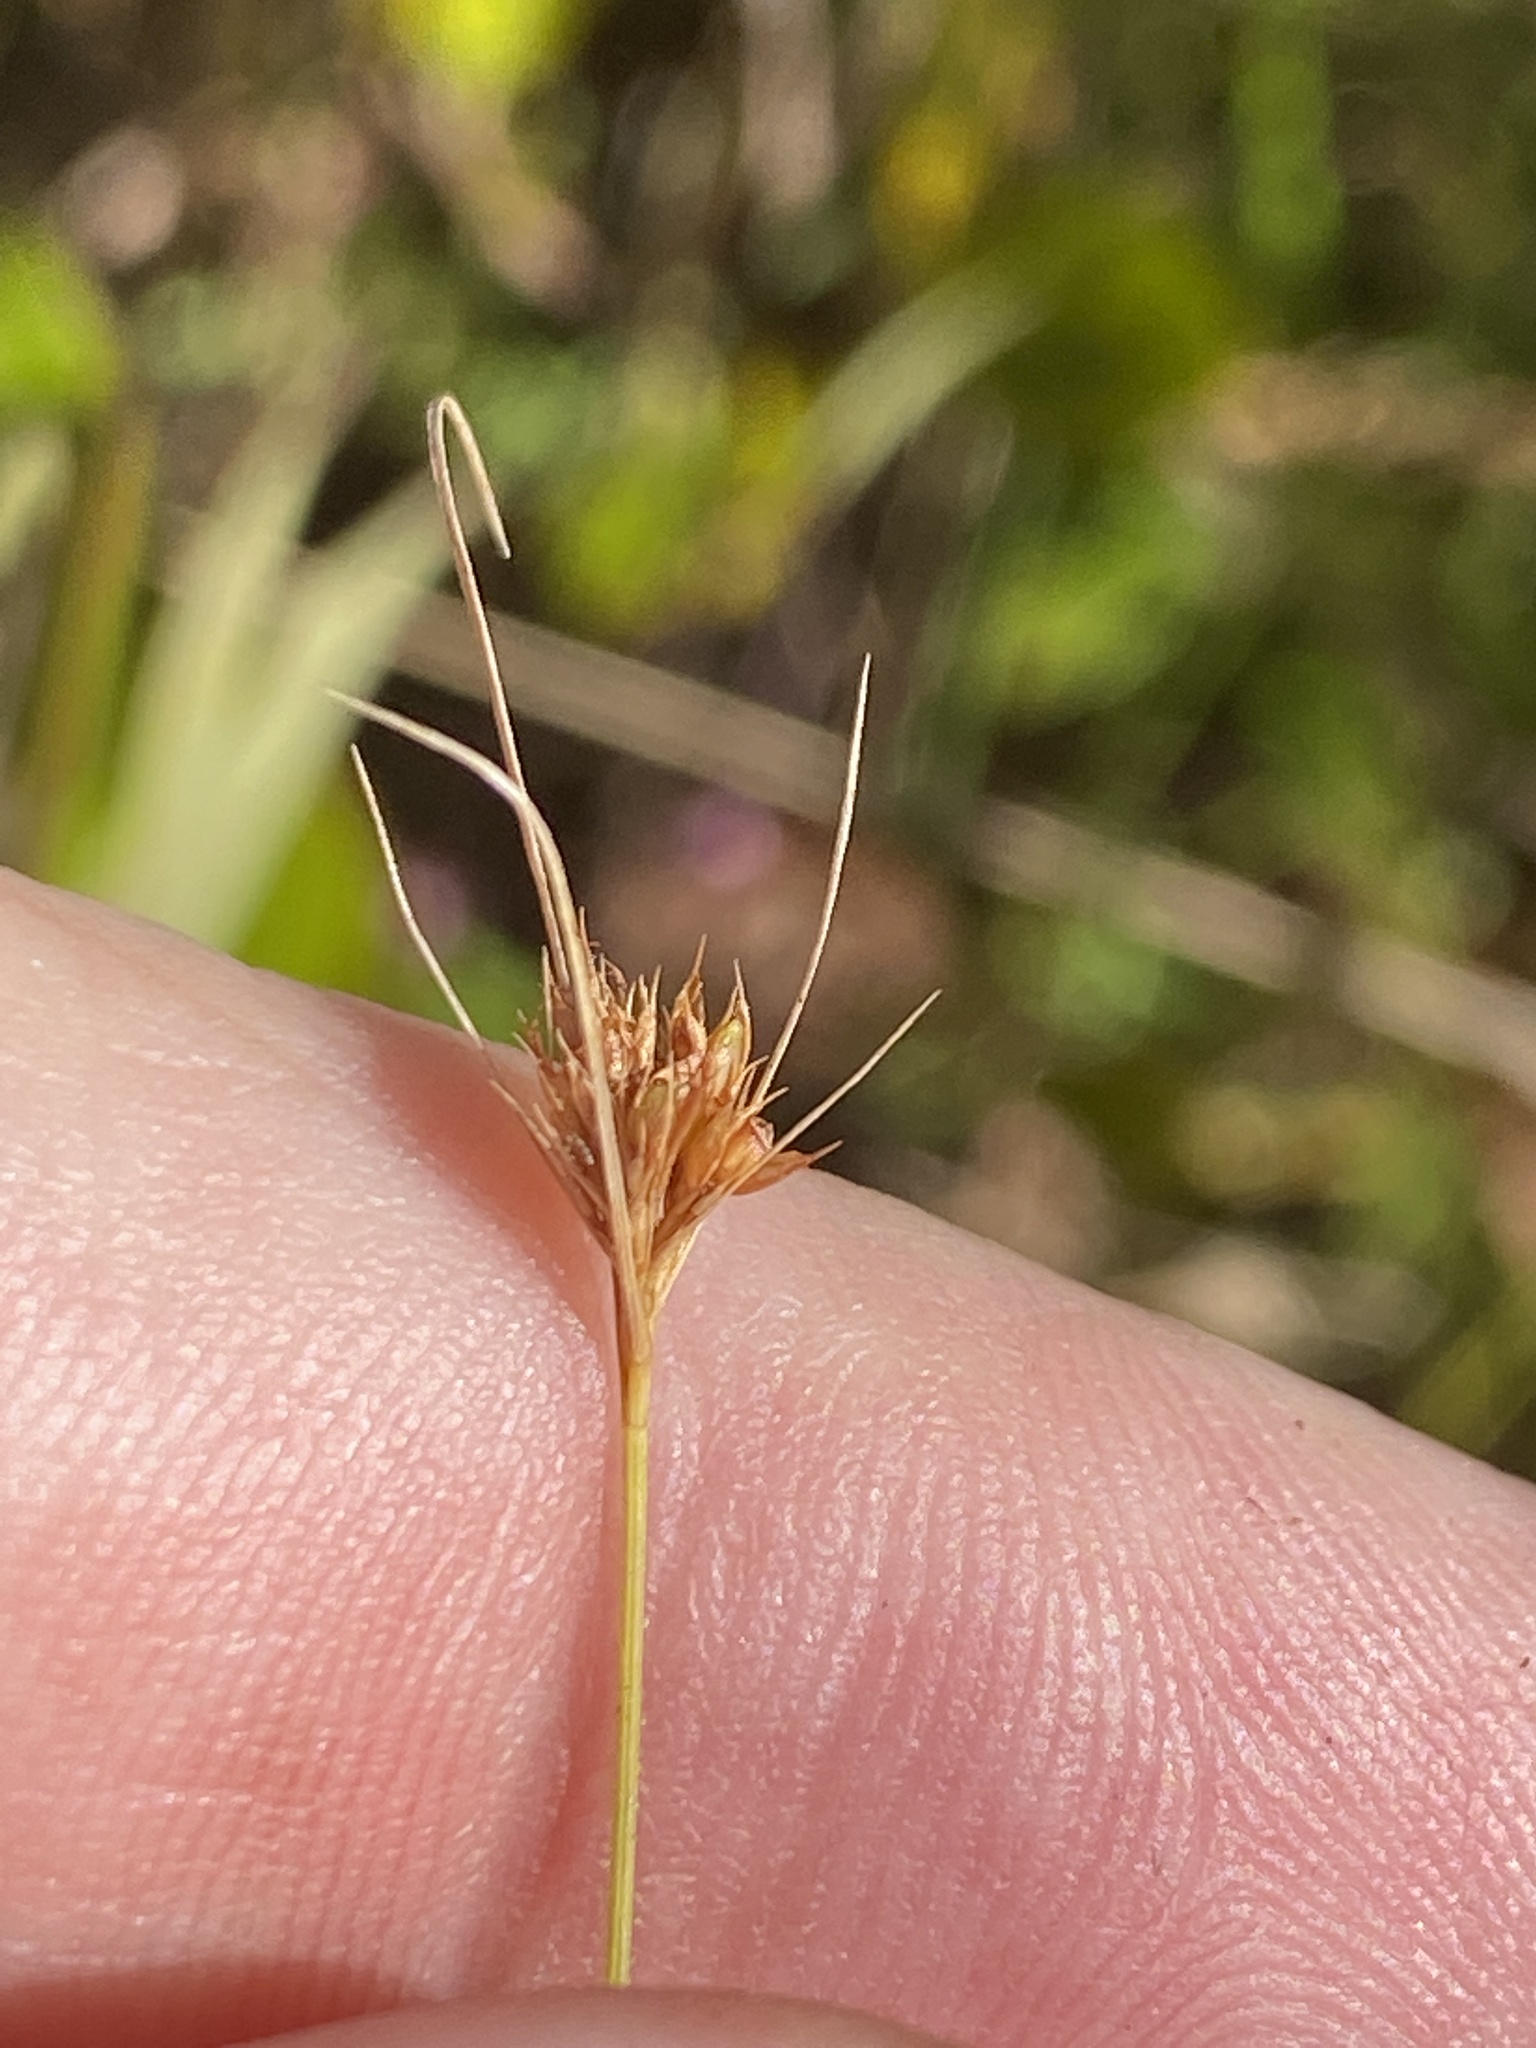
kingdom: Plantae
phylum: Tracheophyta
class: Liliopsida
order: Poales
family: Cyperaceae
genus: Rhynchospora
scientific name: Rhynchospora chapmanii
